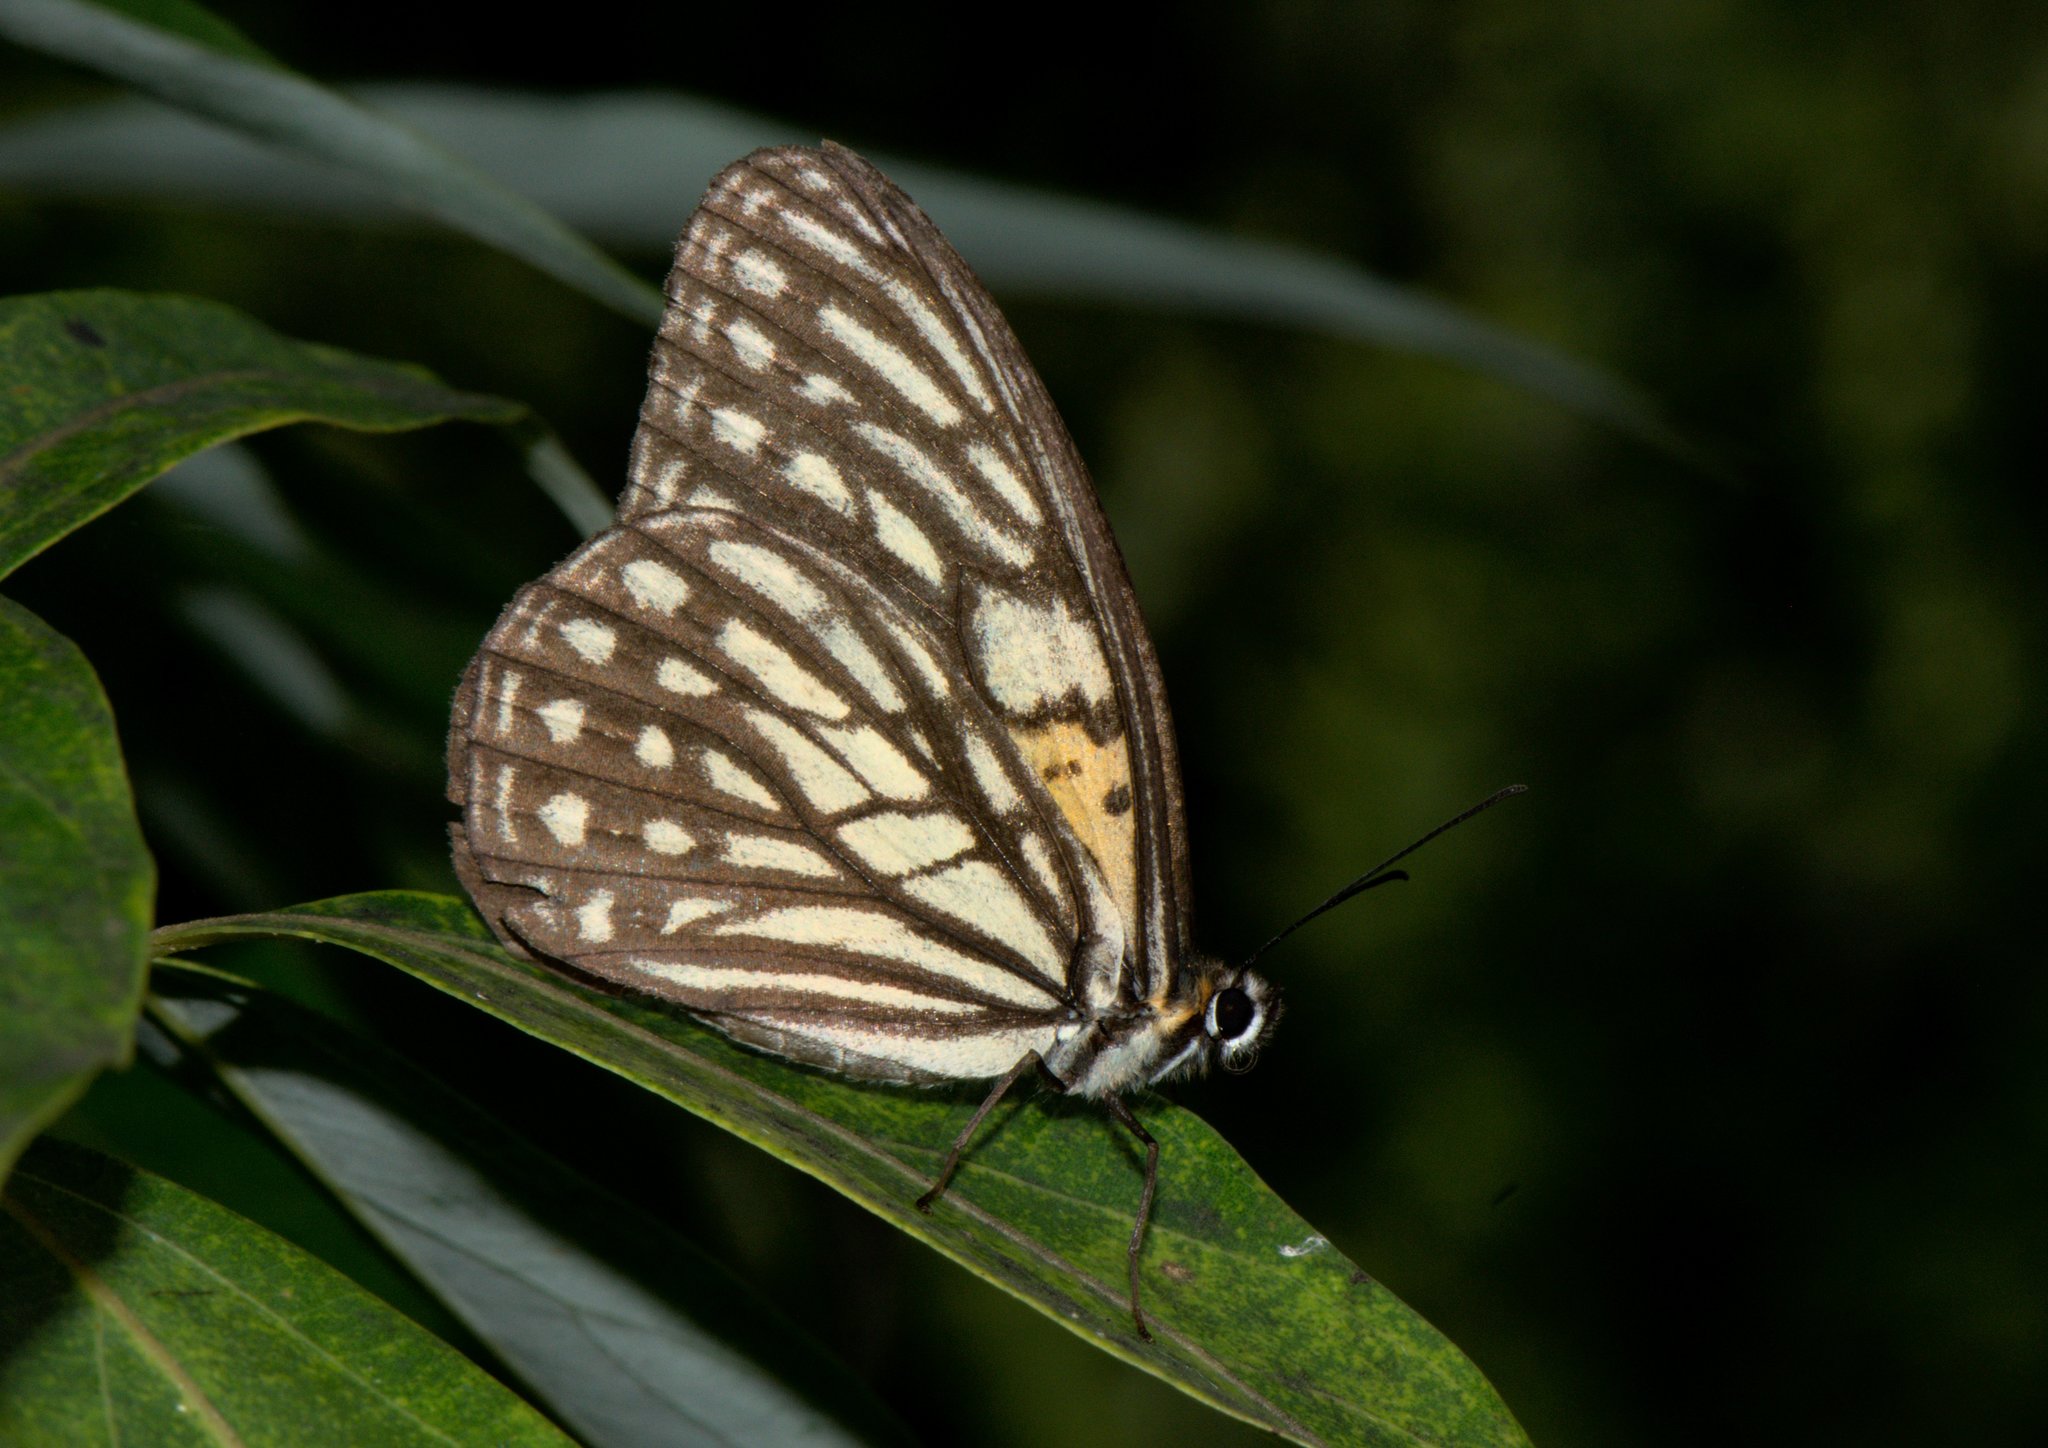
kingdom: Animalia
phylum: Arthropoda
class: Insecta
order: Lepidoptera
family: Nymphalidae
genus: Orinoma
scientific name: Orinoma damaris
